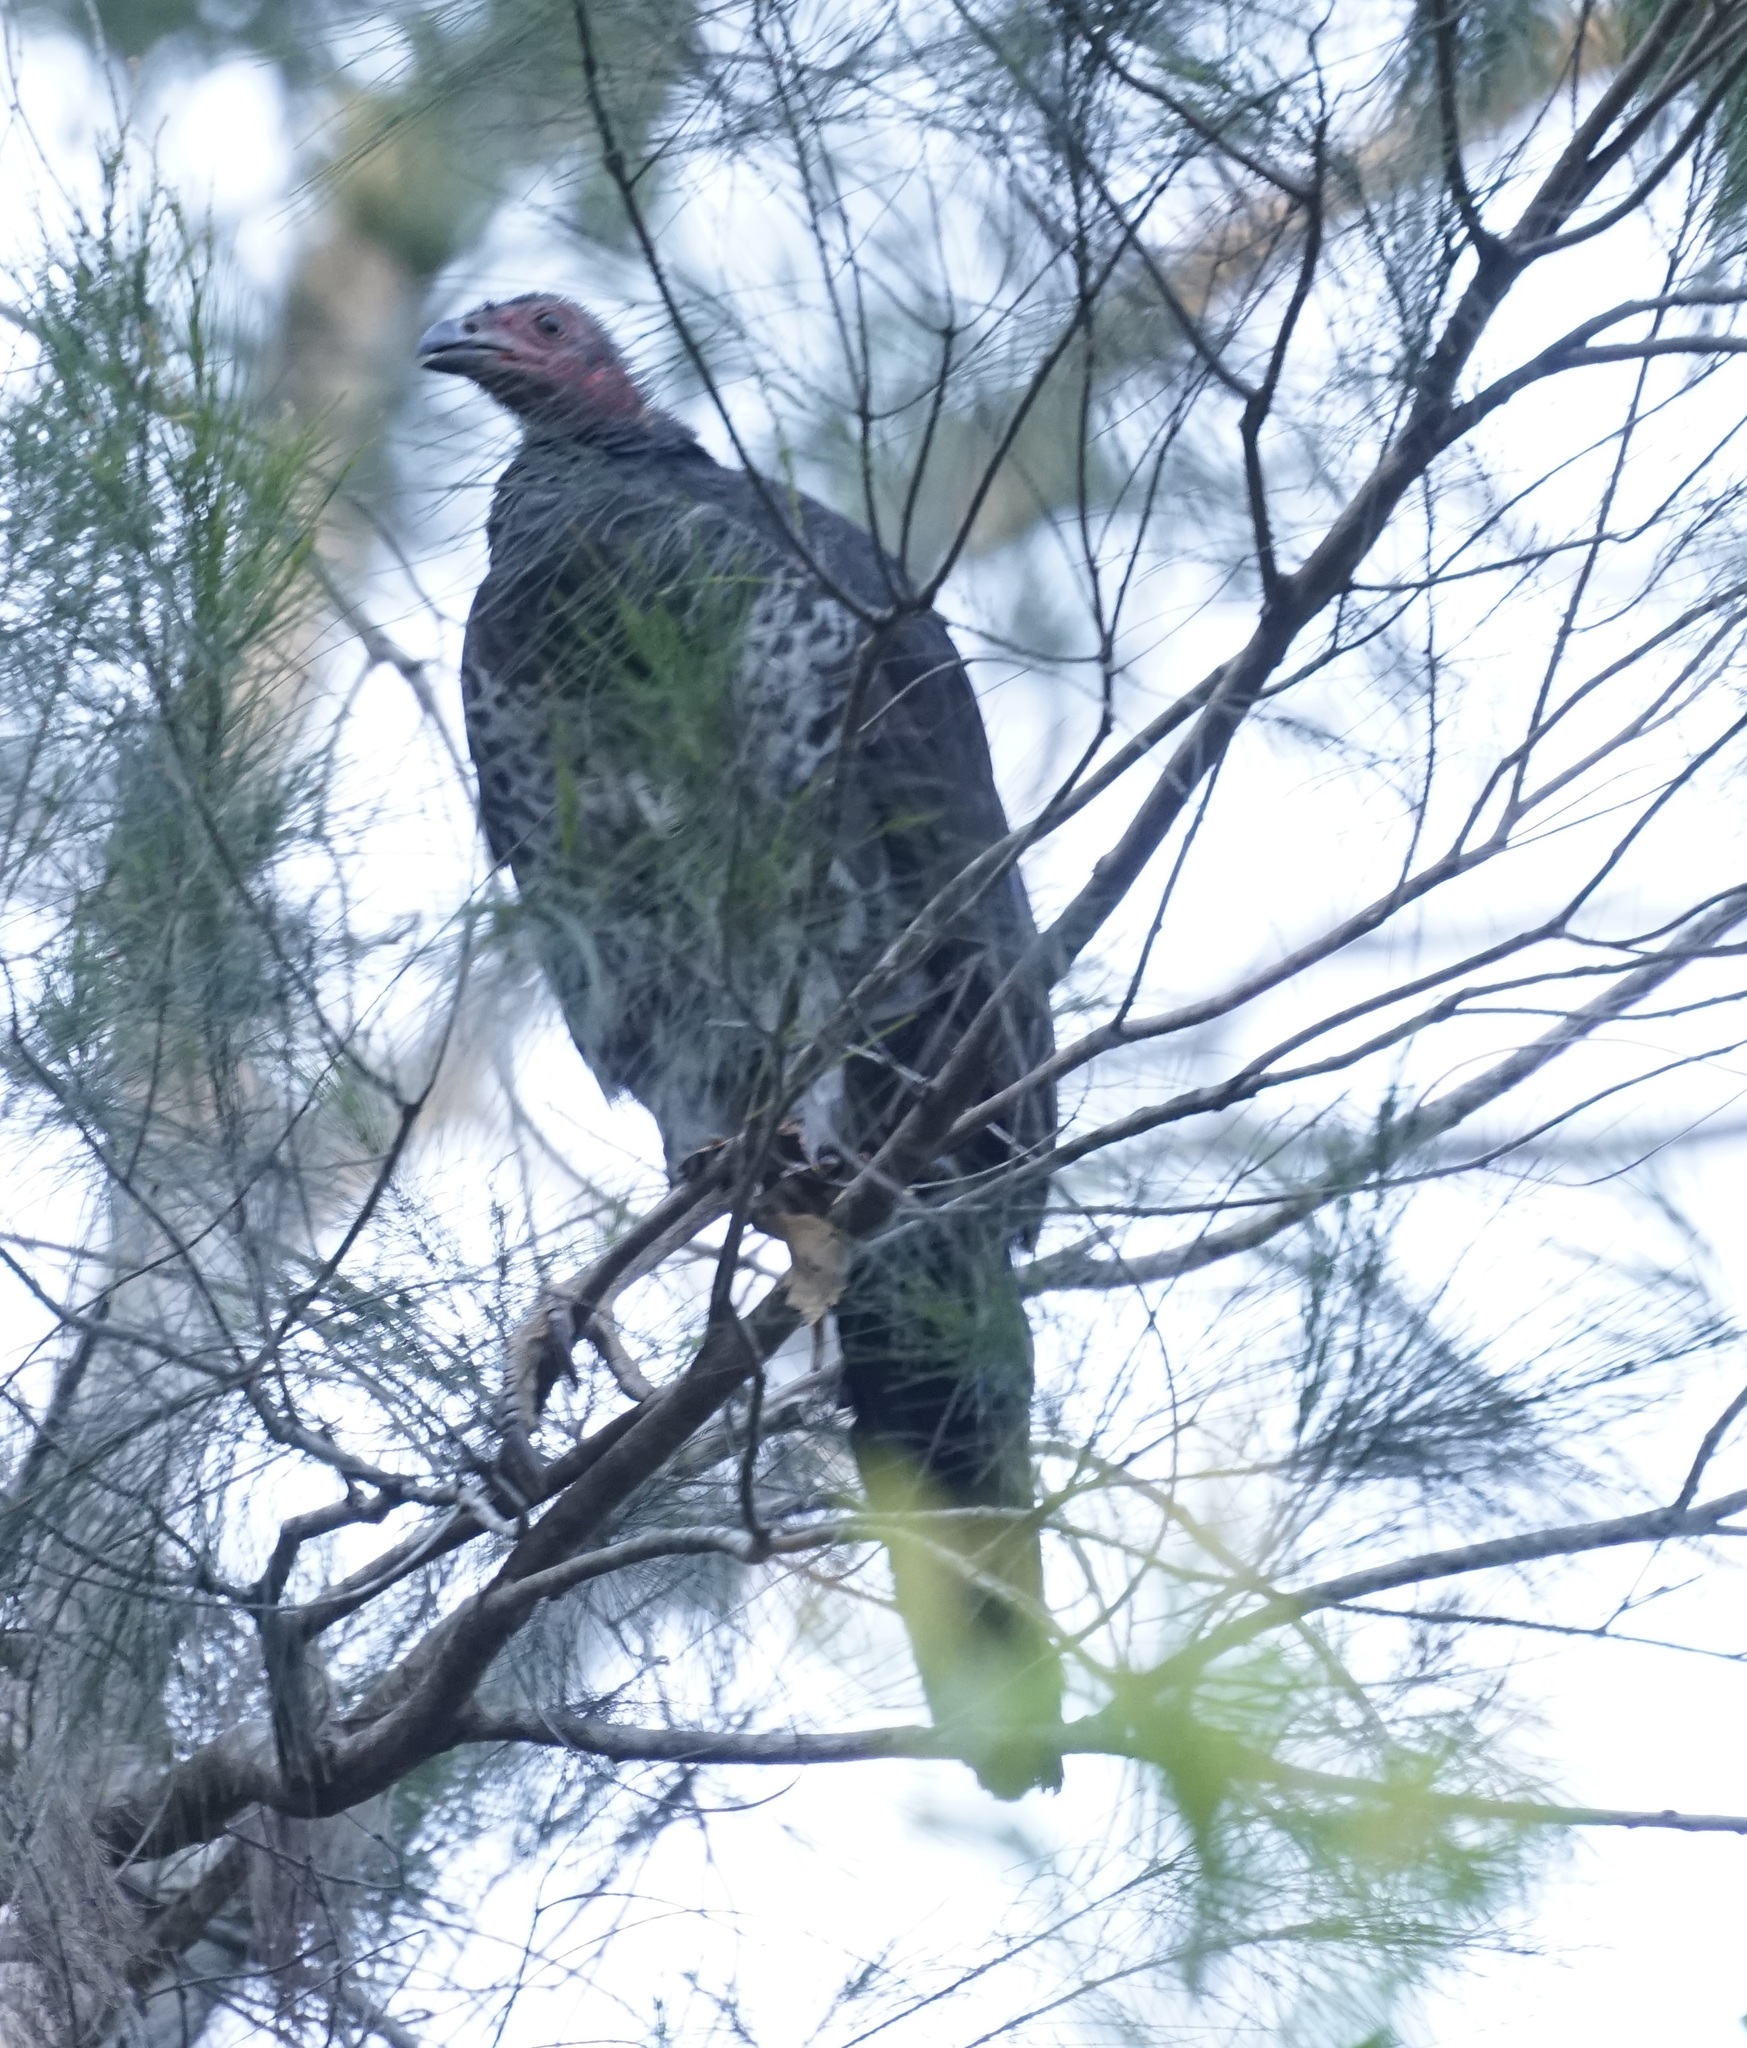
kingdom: Animalia
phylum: Chordata
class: Aves
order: Galliformes
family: Megapodiidae
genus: Alectura
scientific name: Alectura lathami
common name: Australian brushturkey
